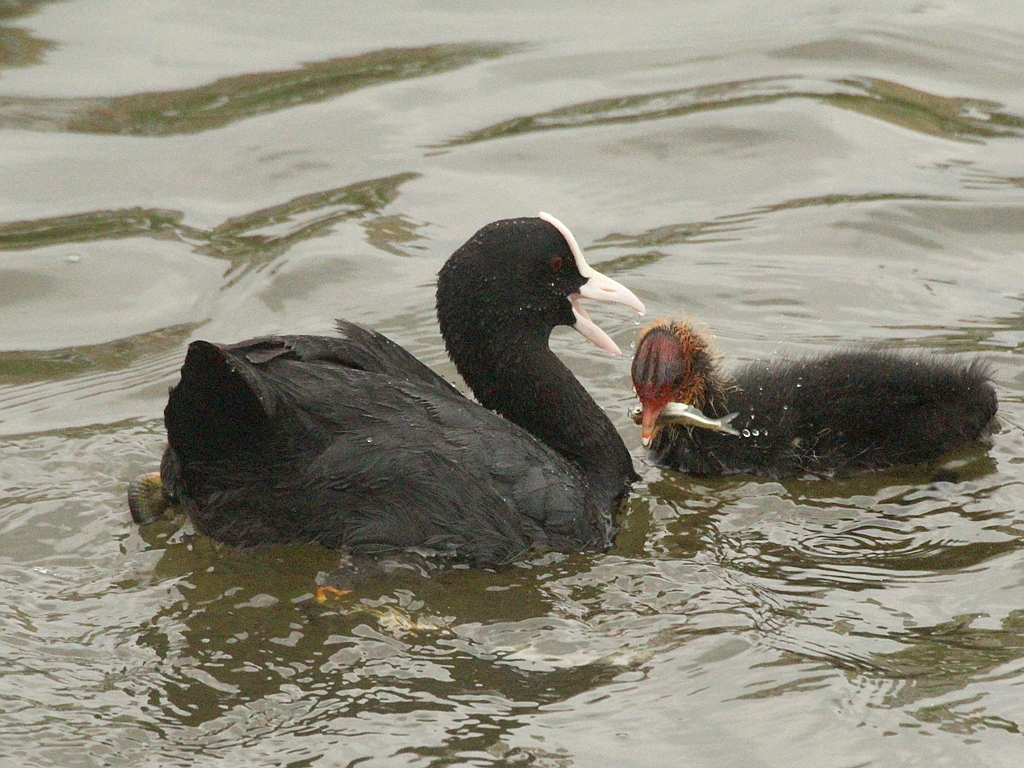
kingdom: Animalia
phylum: Chordata
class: Aves
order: Gruiformes
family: Rallidae
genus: Fulica
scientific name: Fulica atra
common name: Eurasian coot
